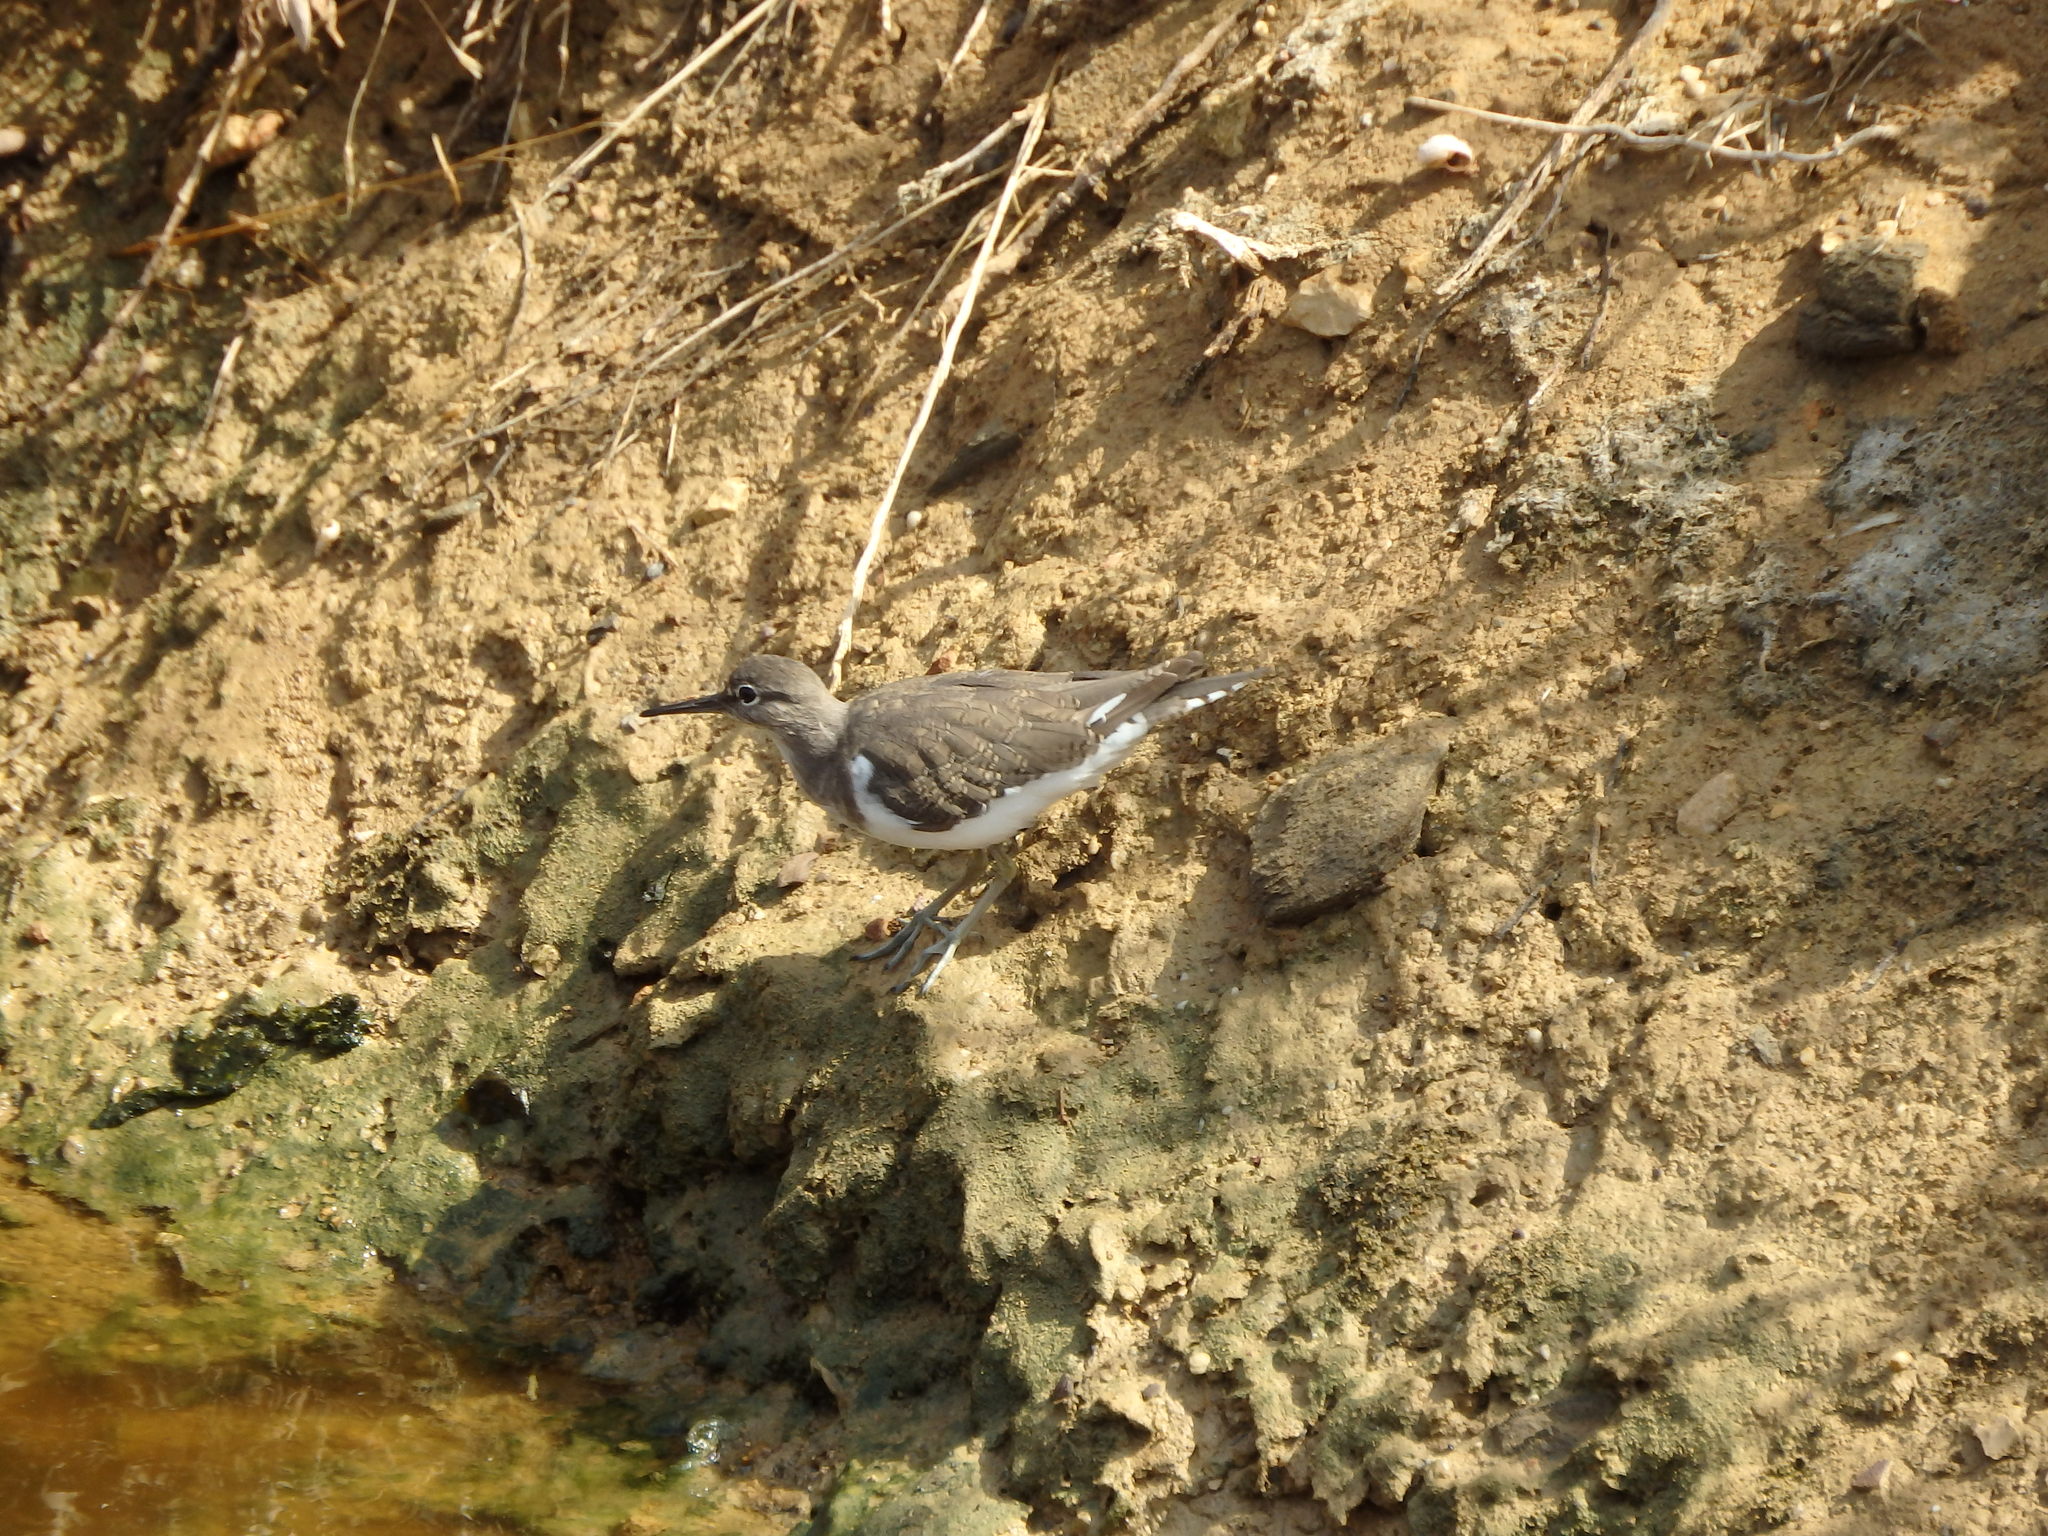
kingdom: Animalia
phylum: Chordata
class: Aves
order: Charadriiformes
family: Scolopacidae
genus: Actitis
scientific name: Actitis hypoleucos
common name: Common sandpiper
